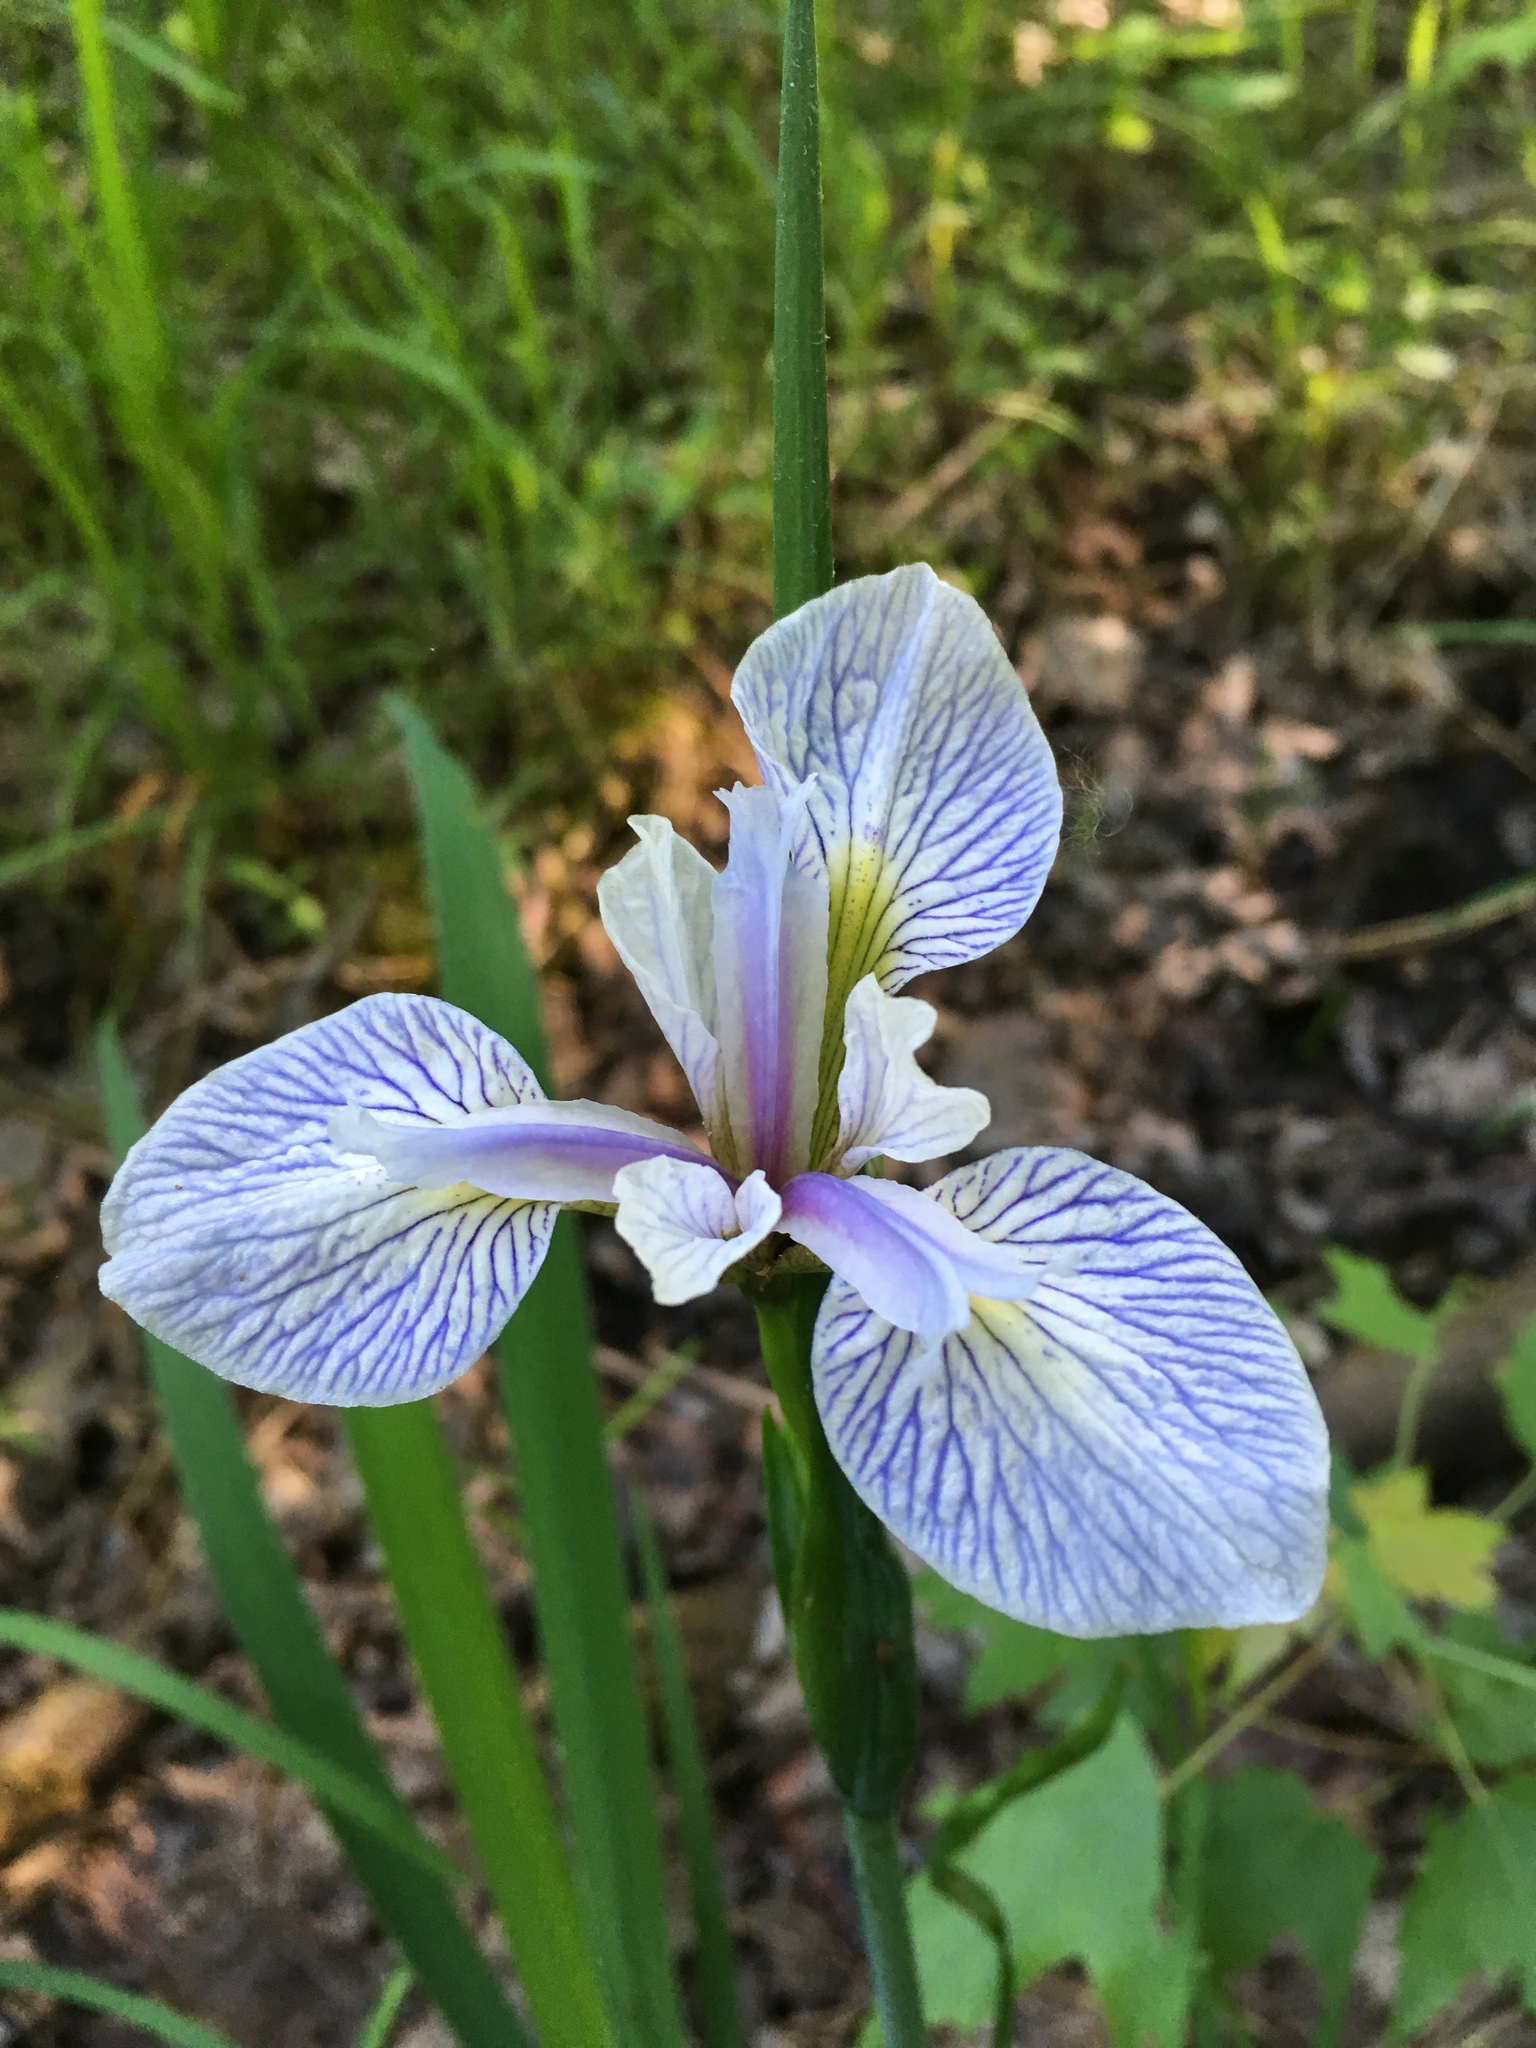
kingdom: Plantae
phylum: Tracheophyta
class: Liliopsida
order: Asparagales
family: Iridaceae
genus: Iris
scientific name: Iris versicolor
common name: Purple iris
